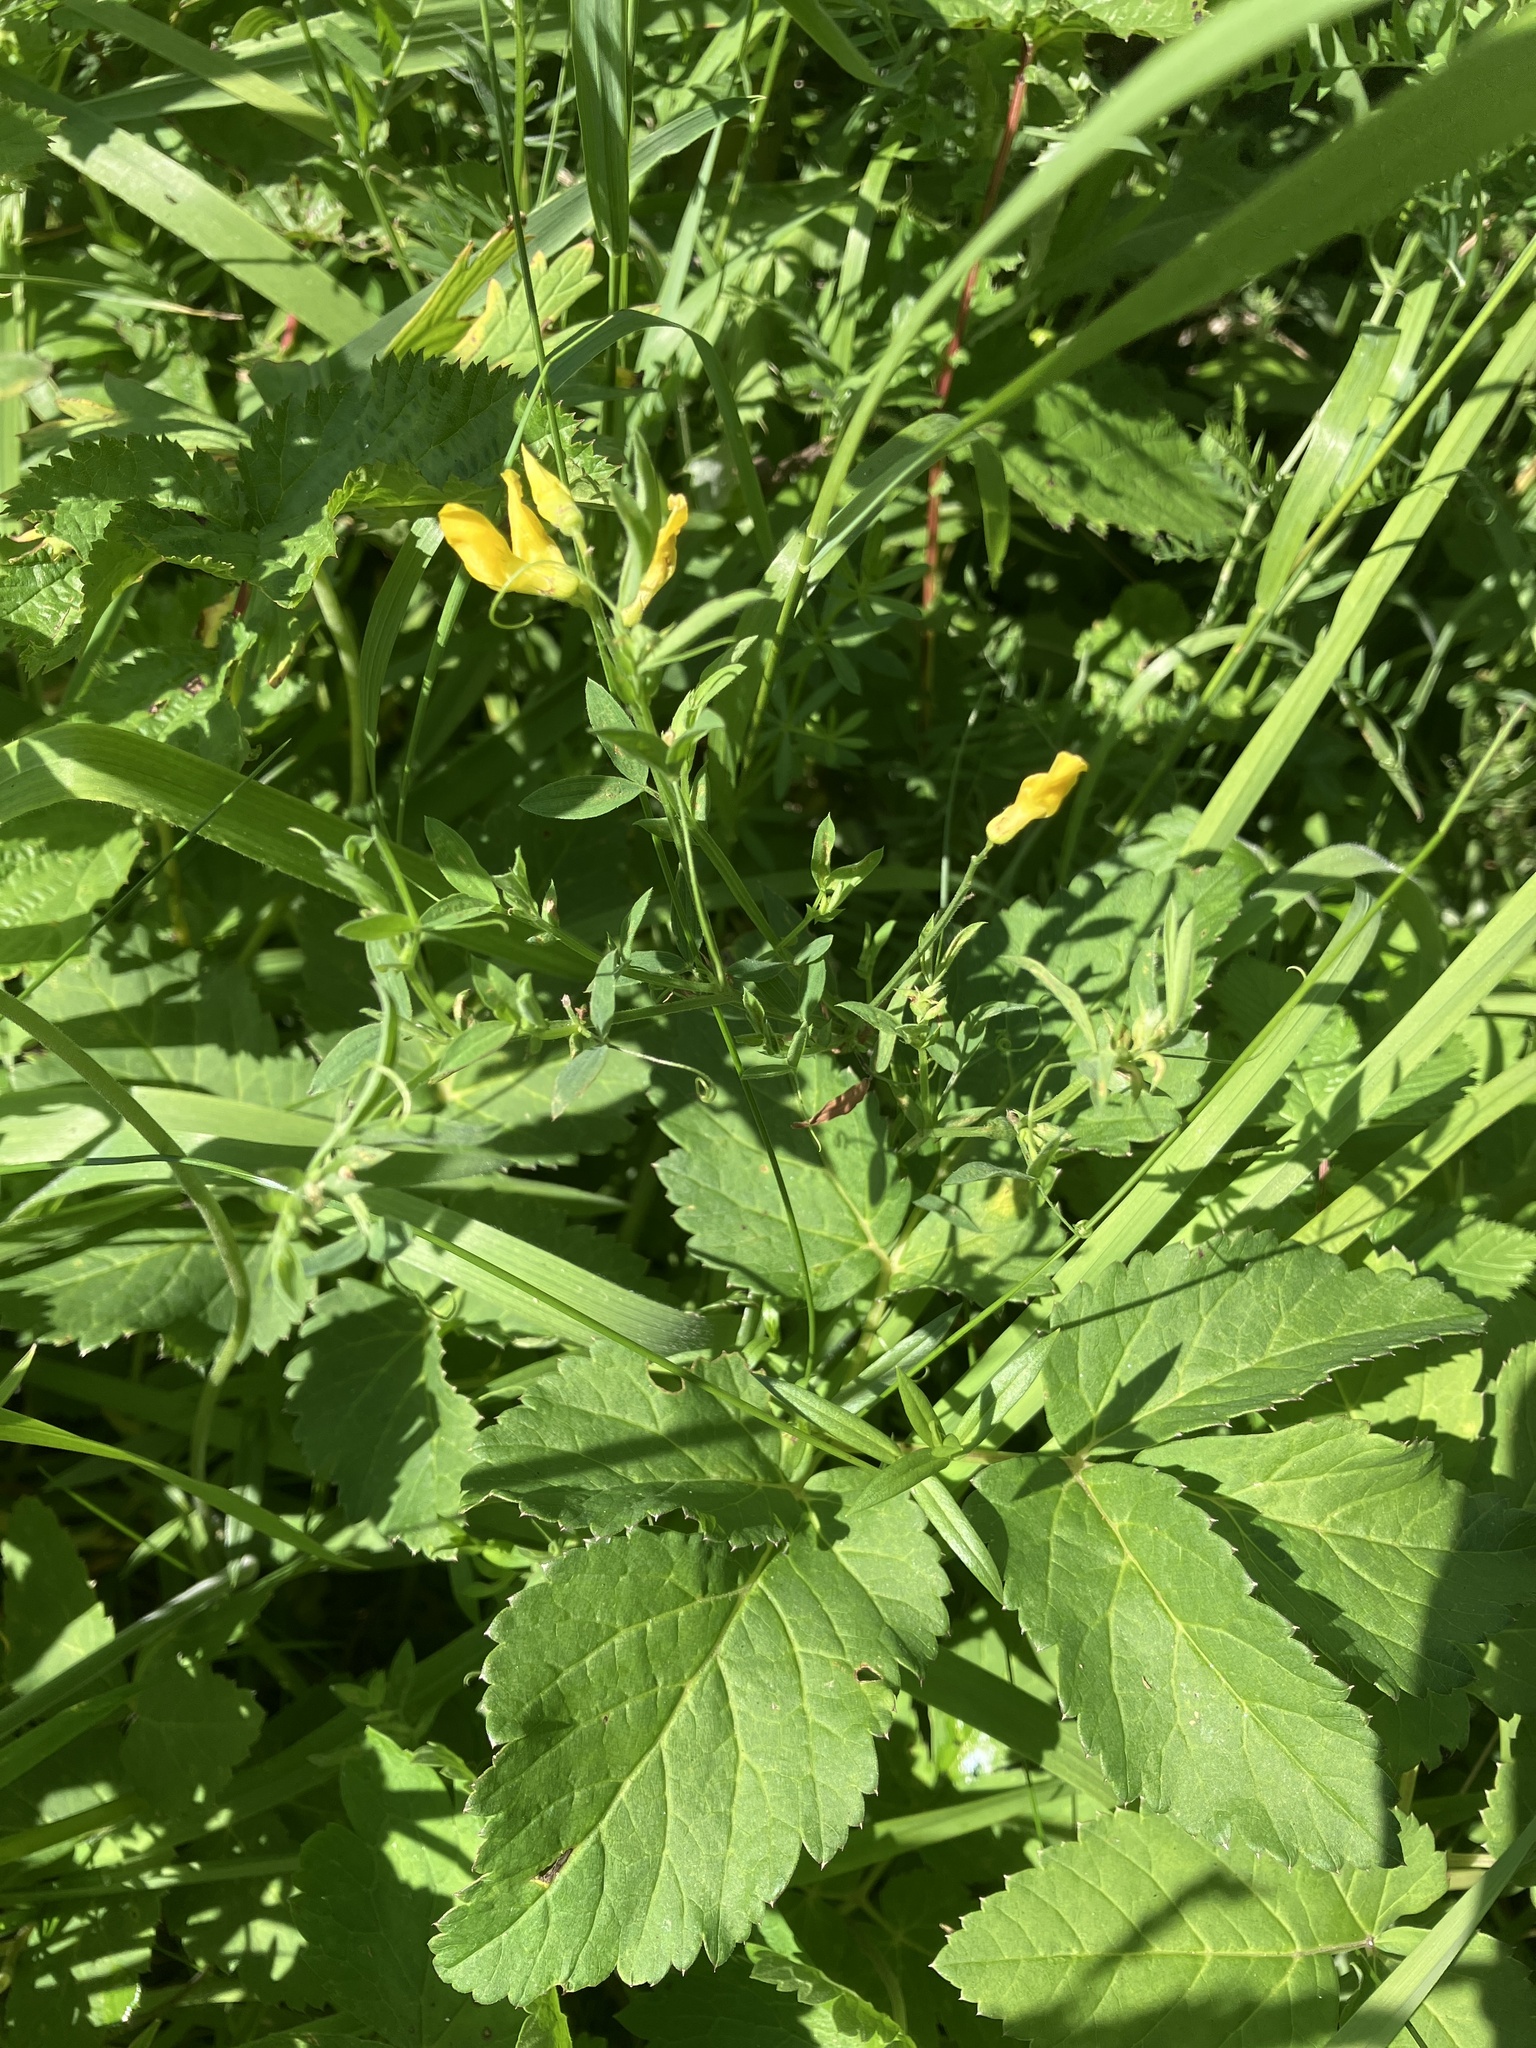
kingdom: Plantae
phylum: Tracheophyta
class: Magnoliopsida
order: Fabales
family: Fabaceae
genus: Lathyrus
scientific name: Lathyrus pratensis
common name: Meadow vetchling
